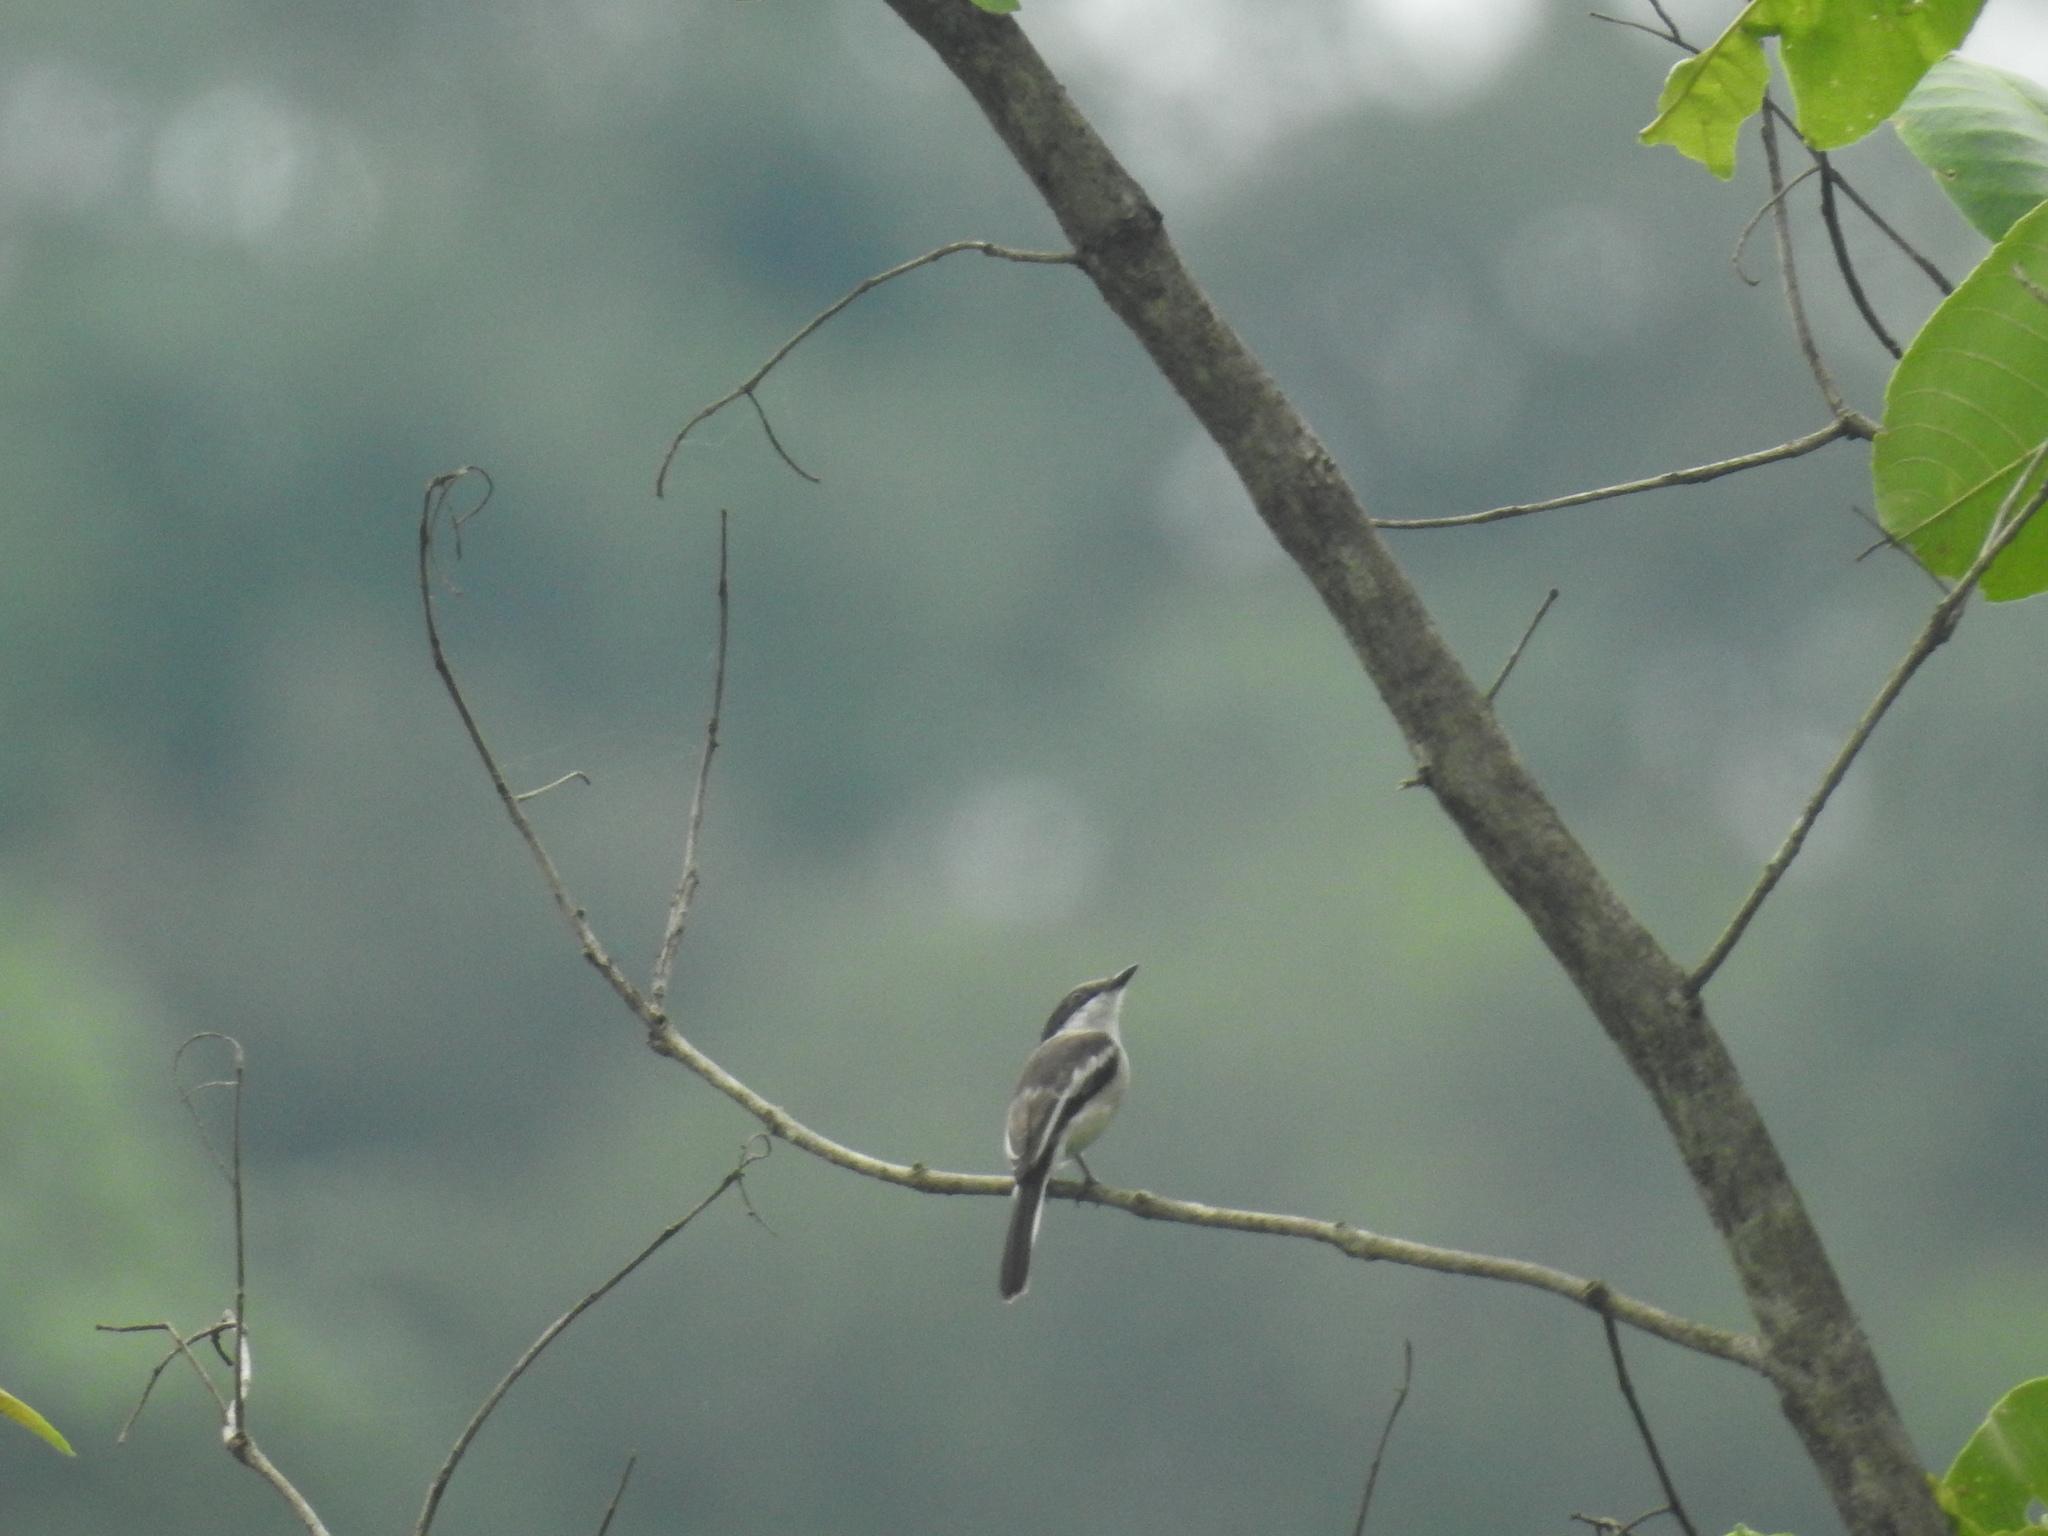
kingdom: Animalia
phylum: Chordata
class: Aves
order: Passeriformes
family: Tephrodornithidae
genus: Hemipus
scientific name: Hemipus picatus
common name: Bar-winged flycatcher-shrike
